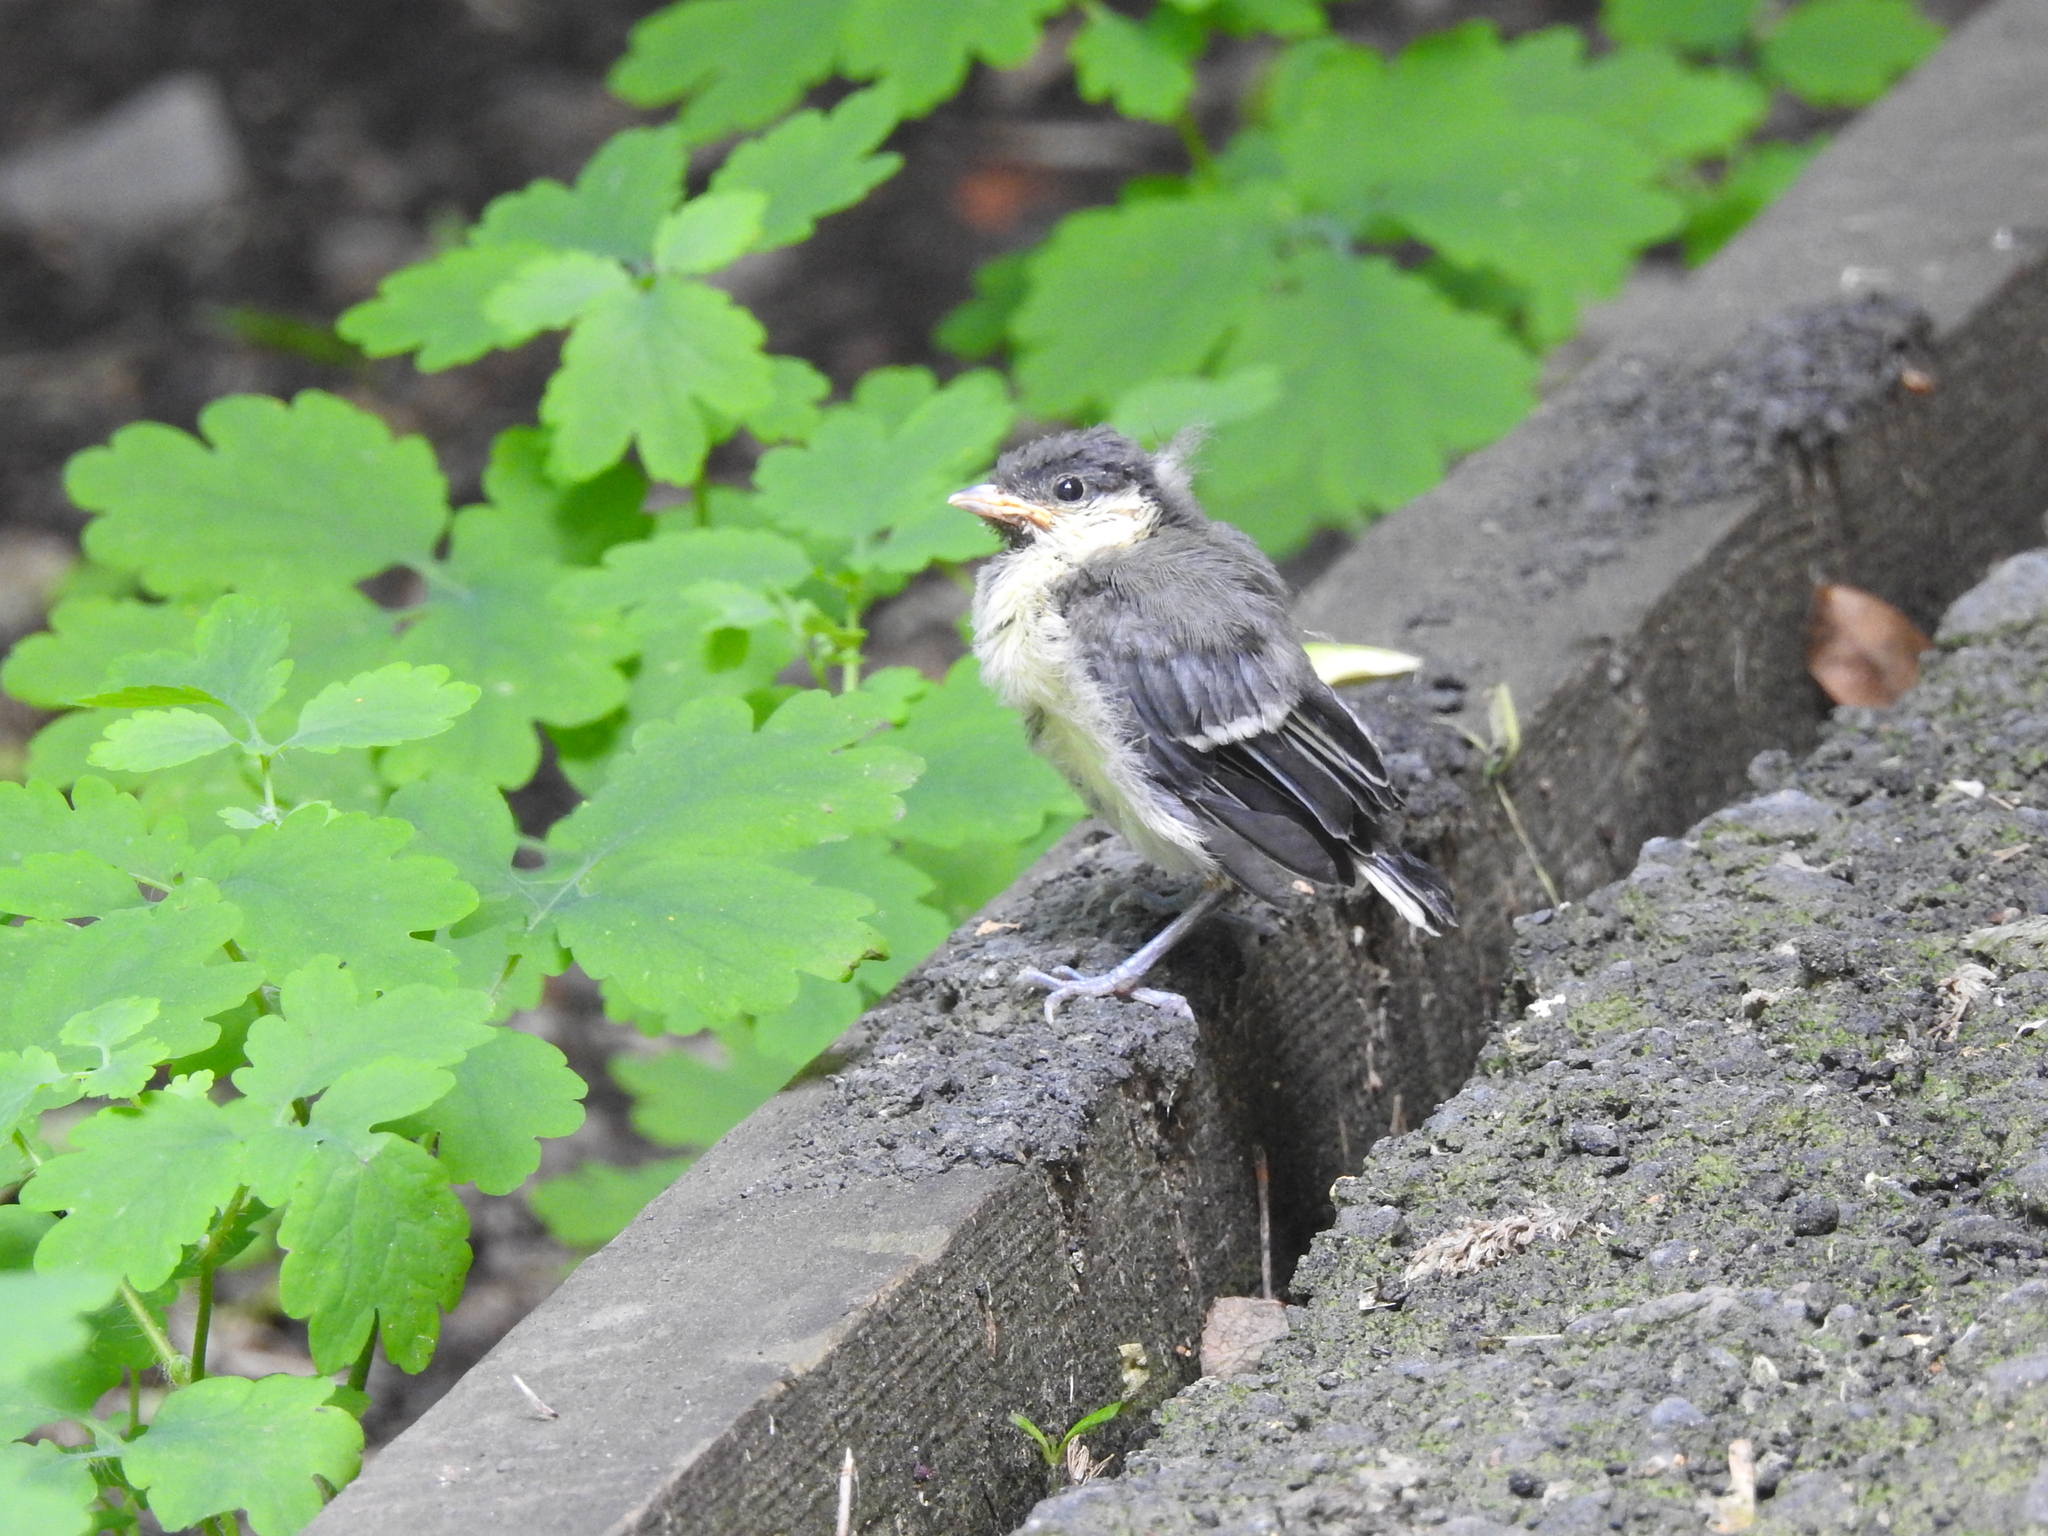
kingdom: Animalia
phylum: Chordata
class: Aves
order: Passeriformes
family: Paridae
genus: Parus
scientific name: Parus major
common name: Great tit
